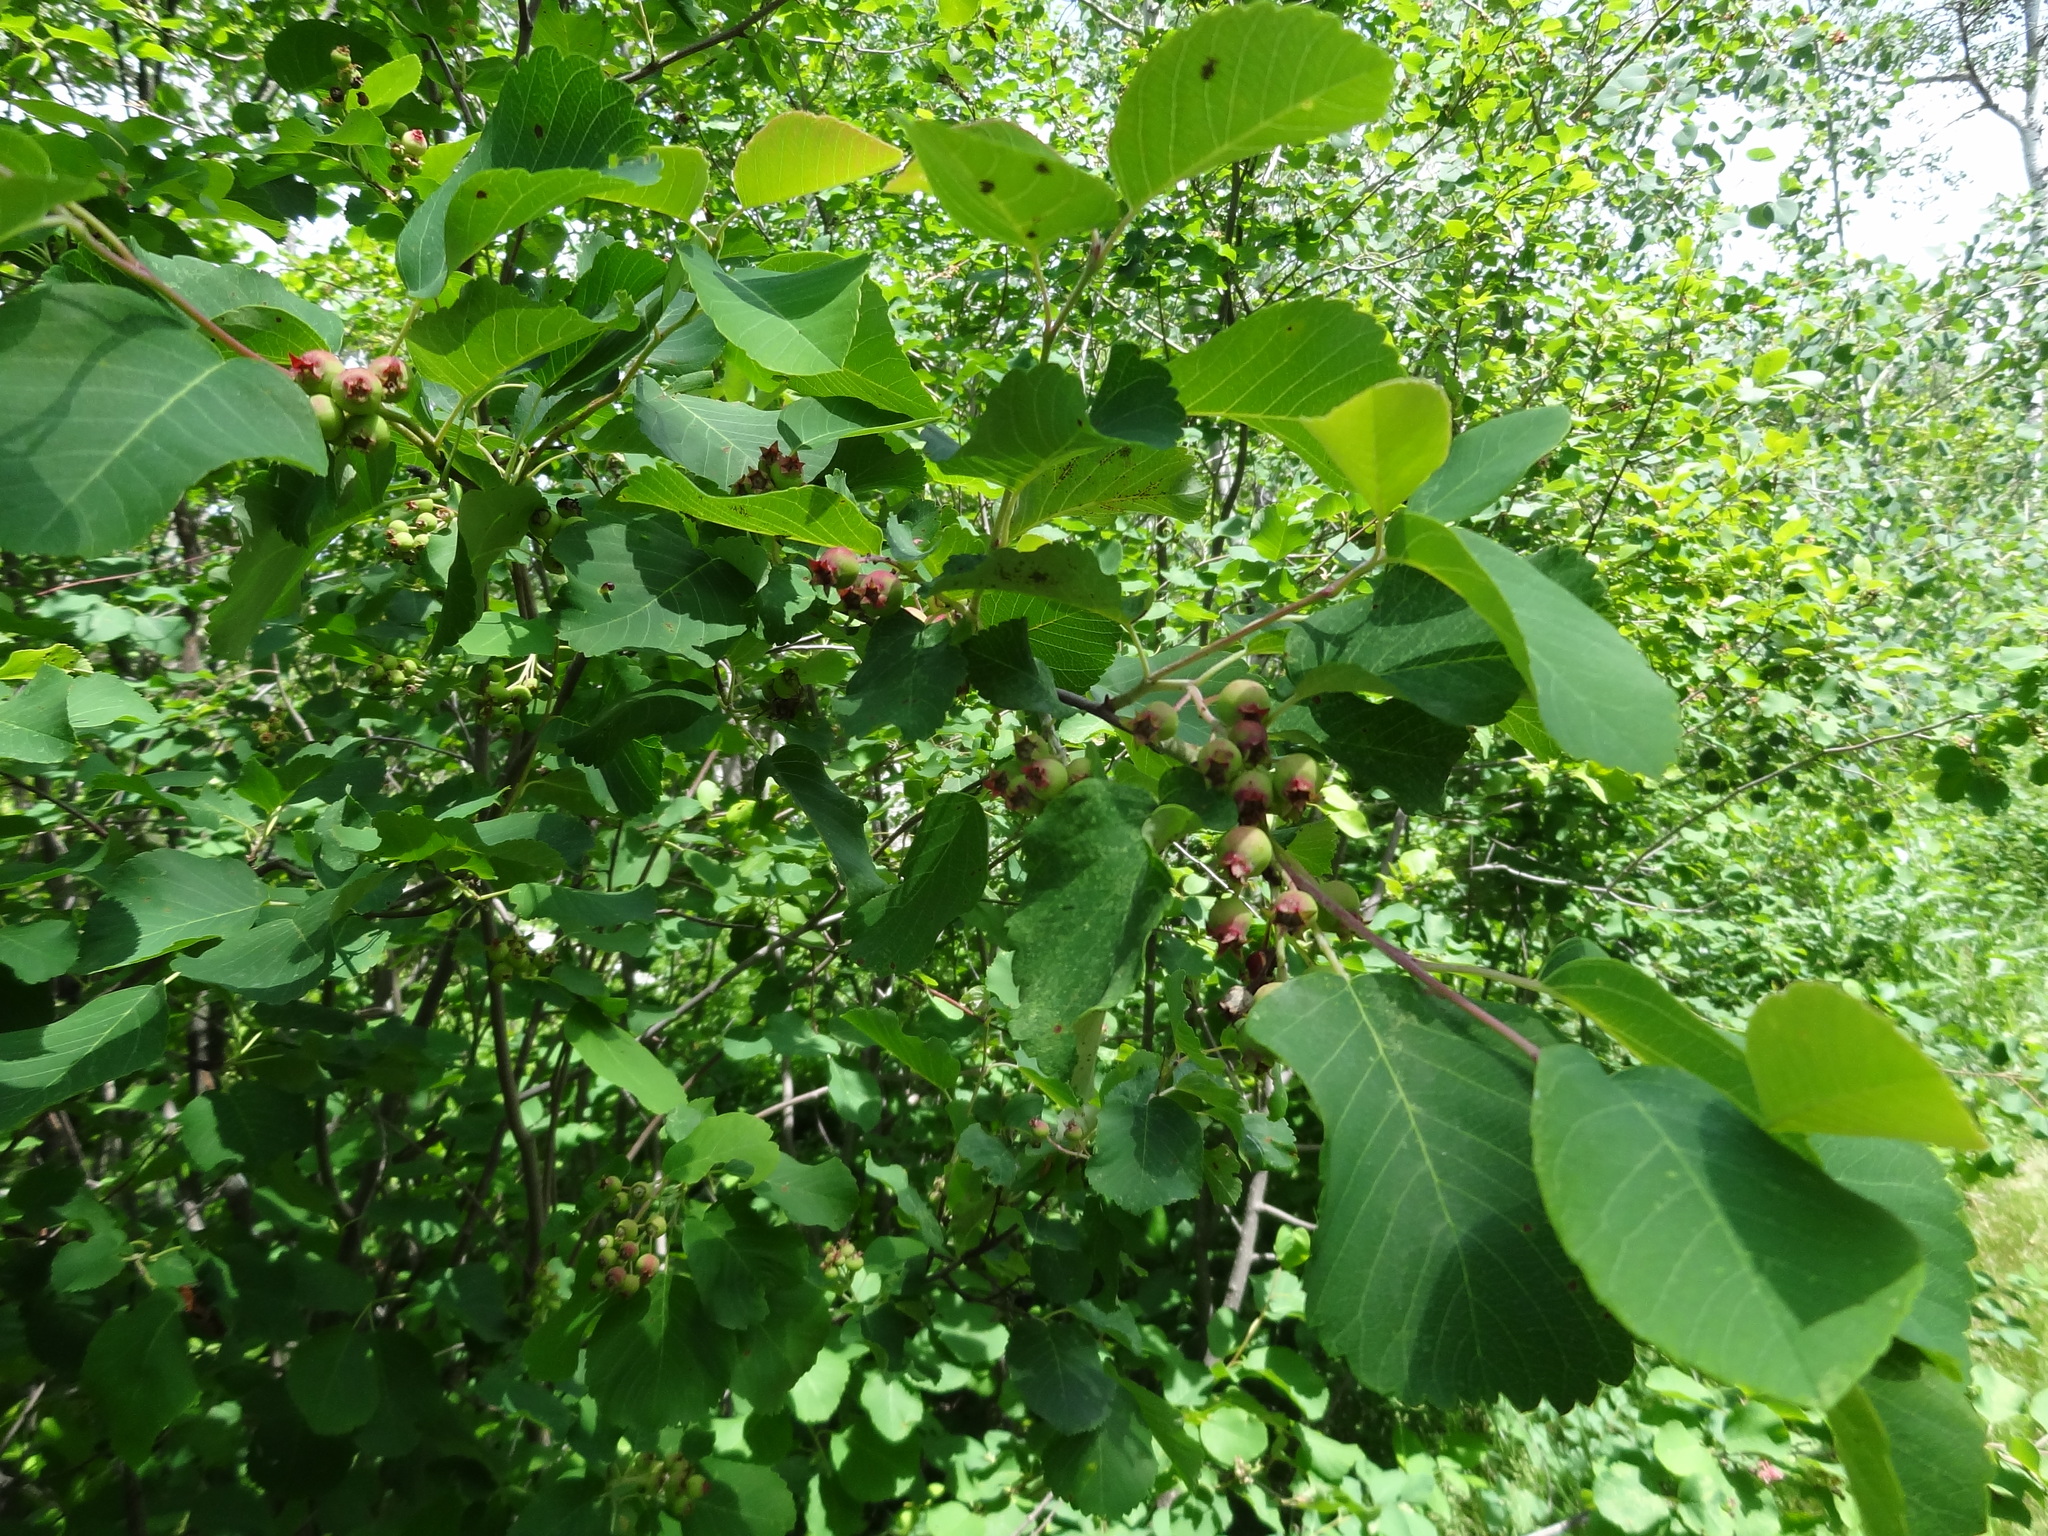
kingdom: Plantae
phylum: Tracheophyta
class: Magnoliopsida
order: Rosales
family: Rosaceae
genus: Amelanchier
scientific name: Amelanchier alnifolia
